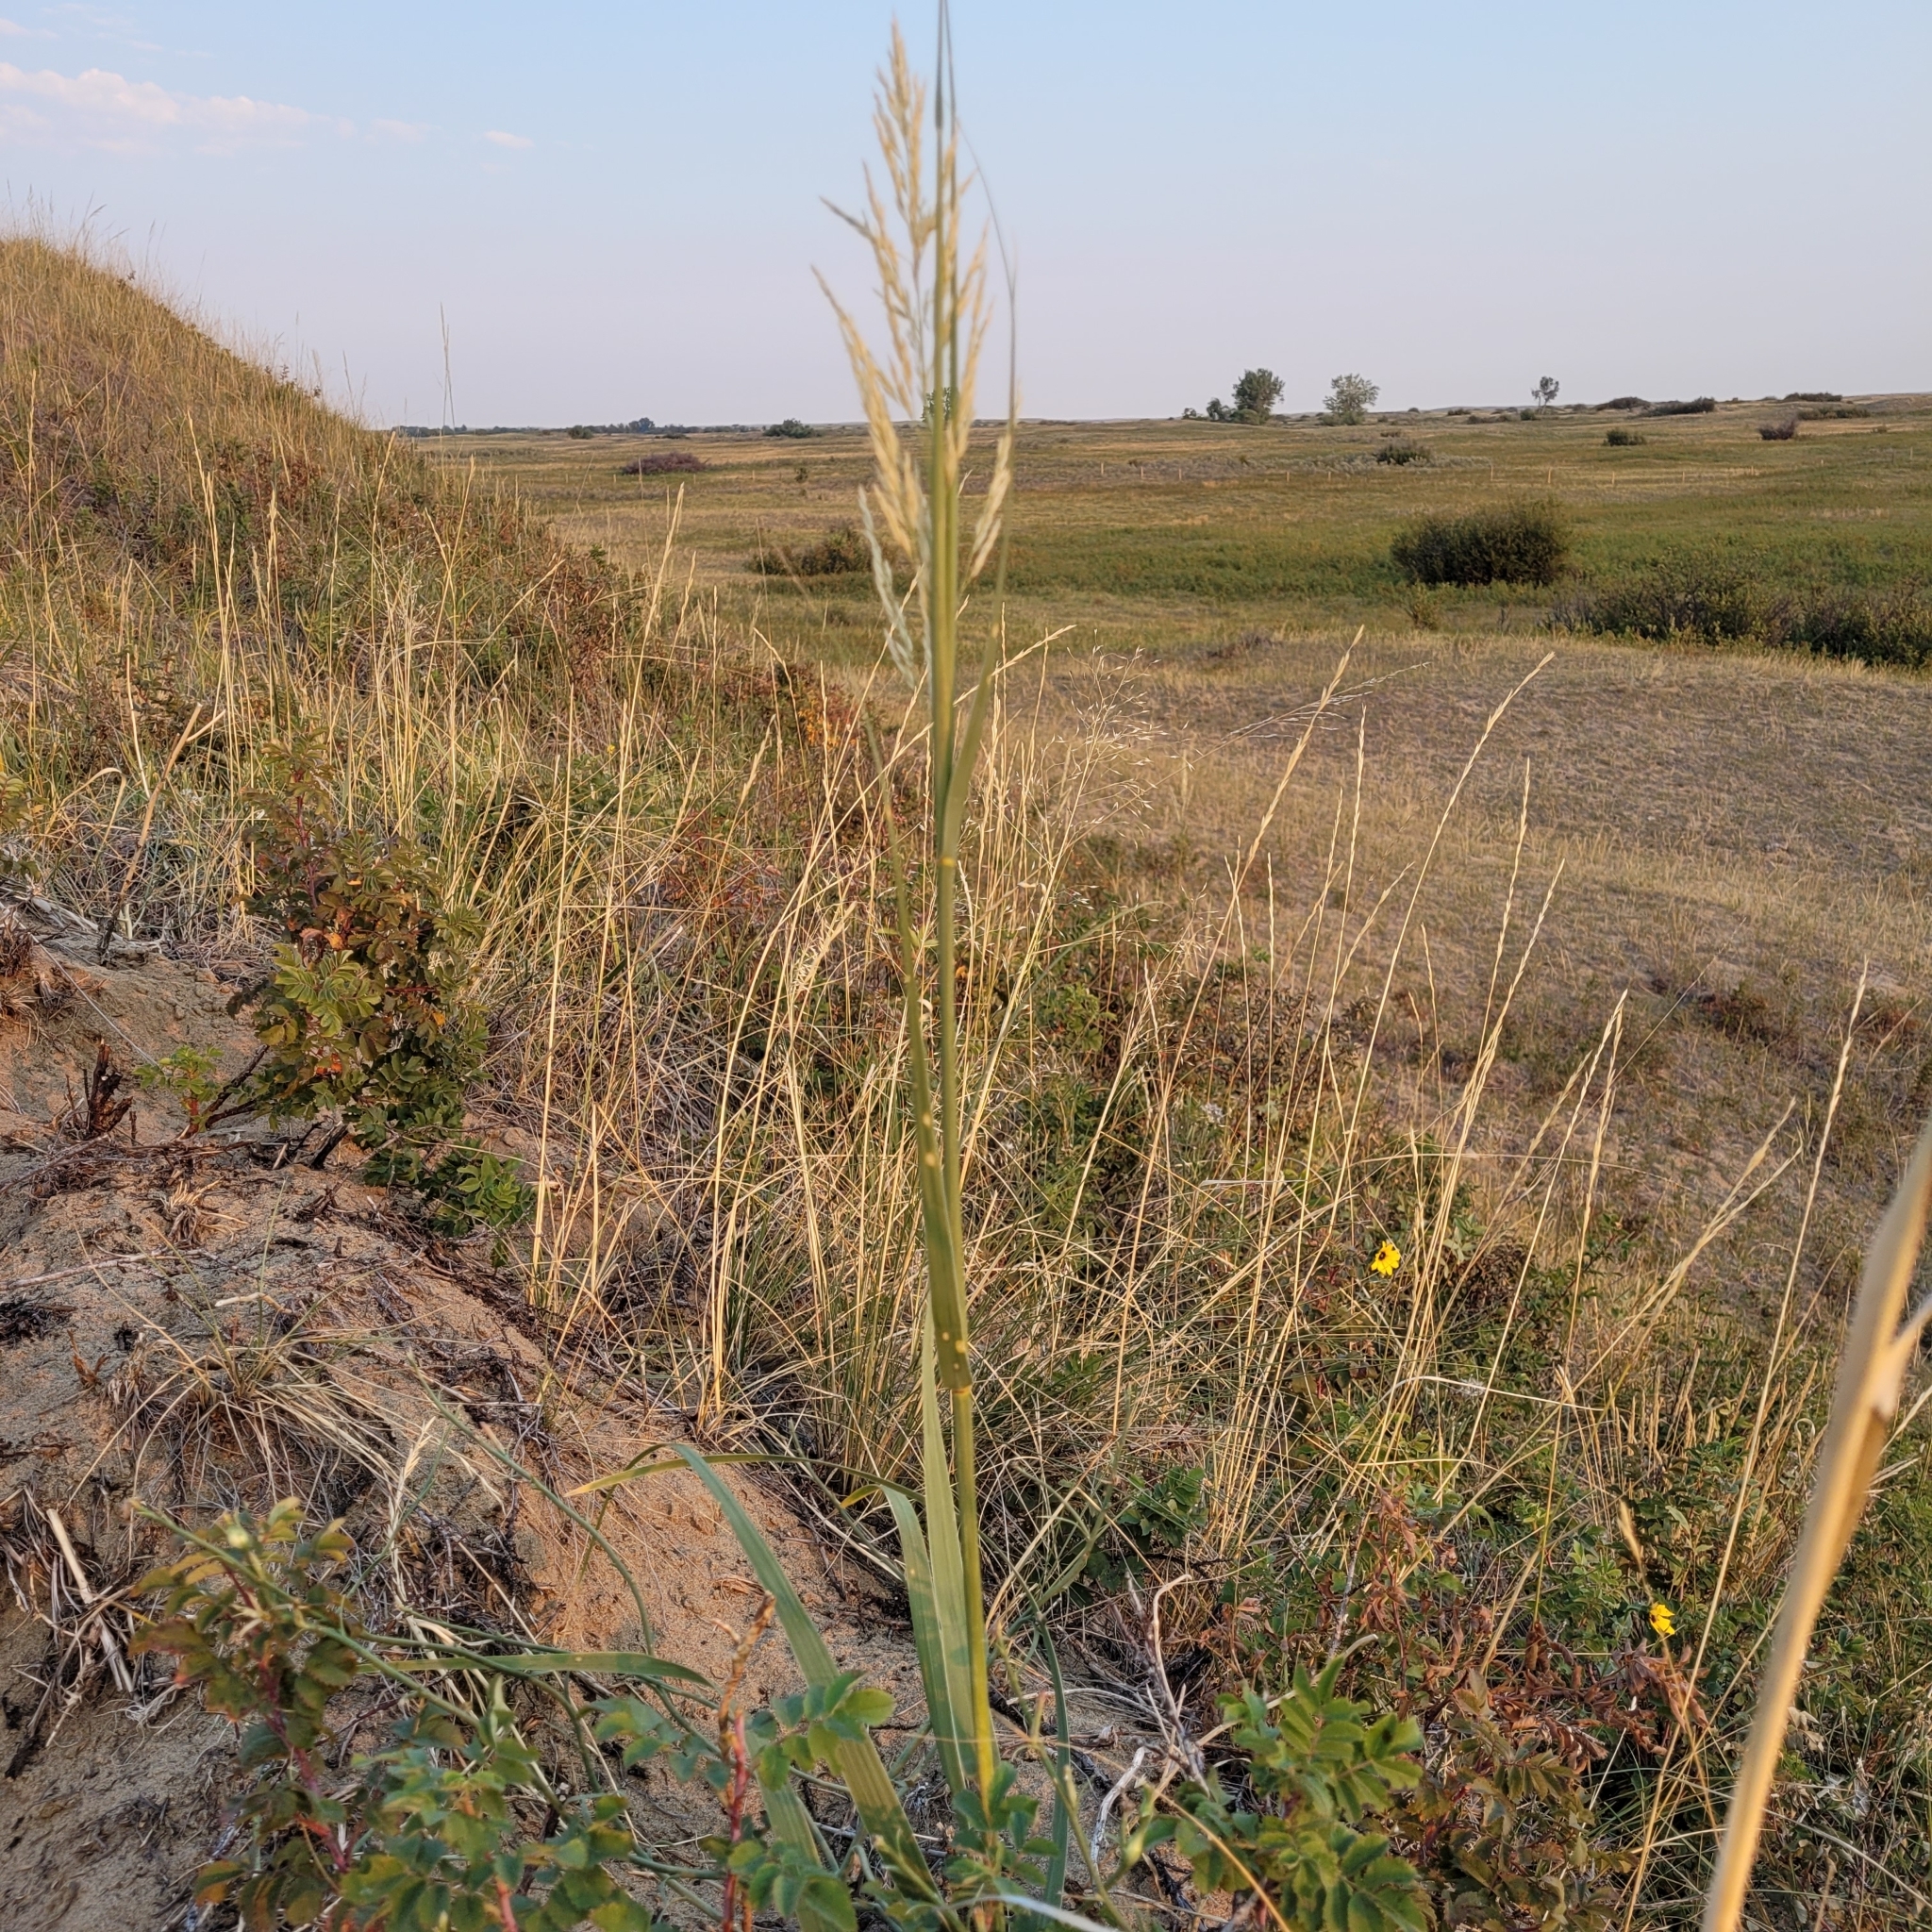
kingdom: Plantae
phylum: Tracheophyta
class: Liliopsida
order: Poales
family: Poaceae
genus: Sporobolus
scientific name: Sporobolus rigidus
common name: Prairie sandreed
